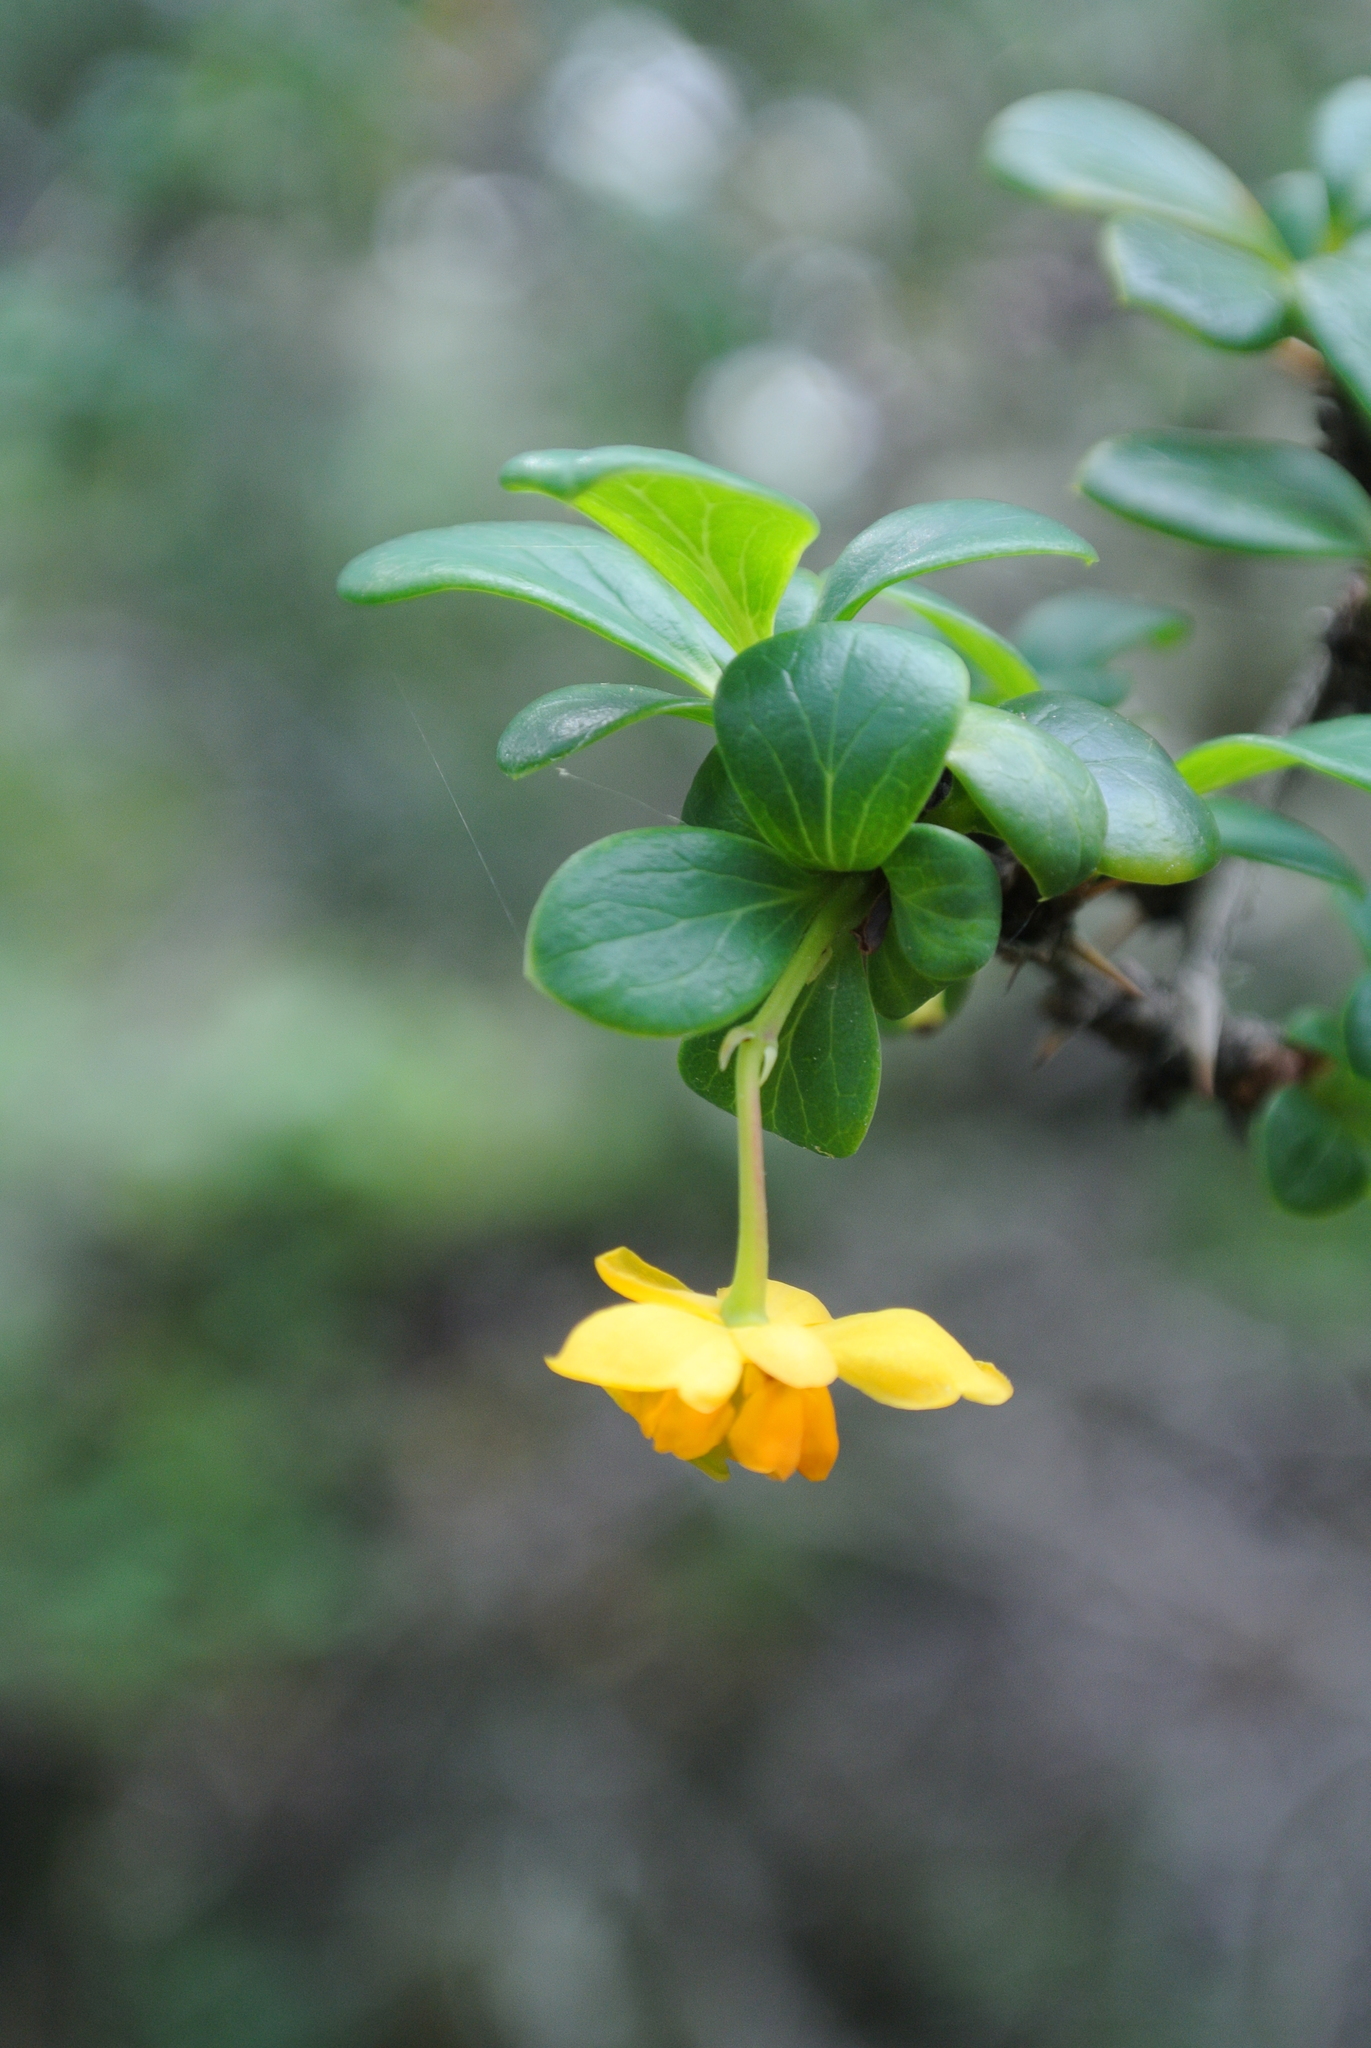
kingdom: Plantae
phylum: Tracheophyta
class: Magnoliopsida
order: Ranunculales
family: Berberidaceae
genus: Berberis
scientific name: Berberis microphylla
